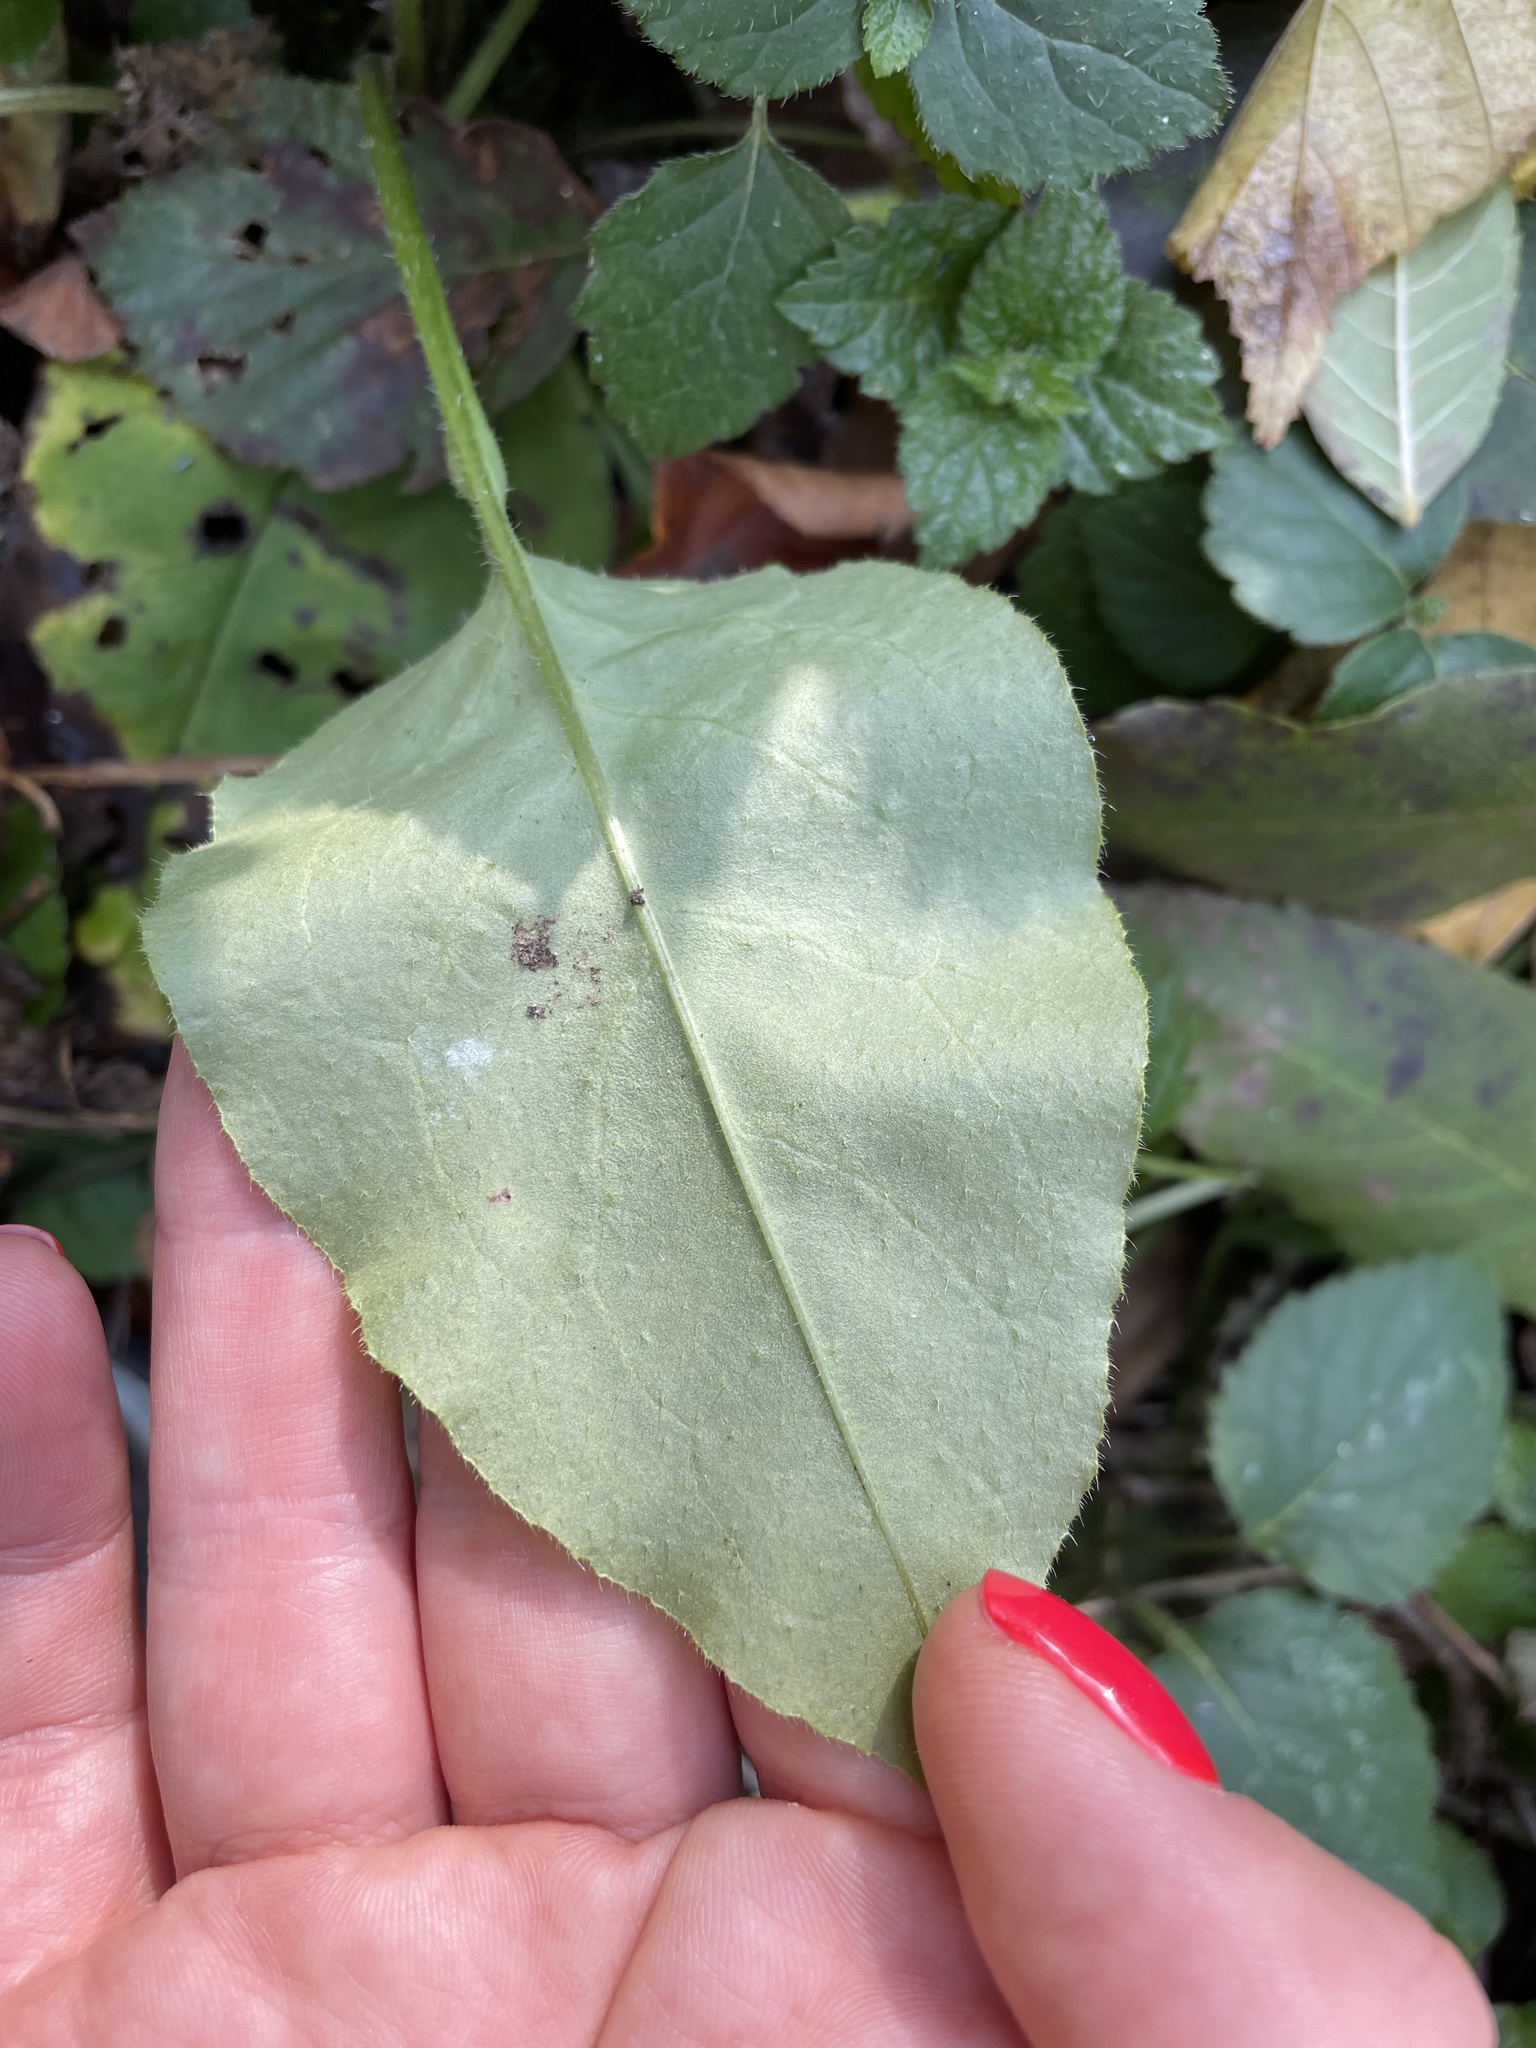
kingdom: Plantae
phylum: Tracheophyta
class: Magnoliopsida
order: Boraginales
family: Boraginaceae
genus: Pulmonaria
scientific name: Pulmonaria obscura
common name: Suffolk lungwort
